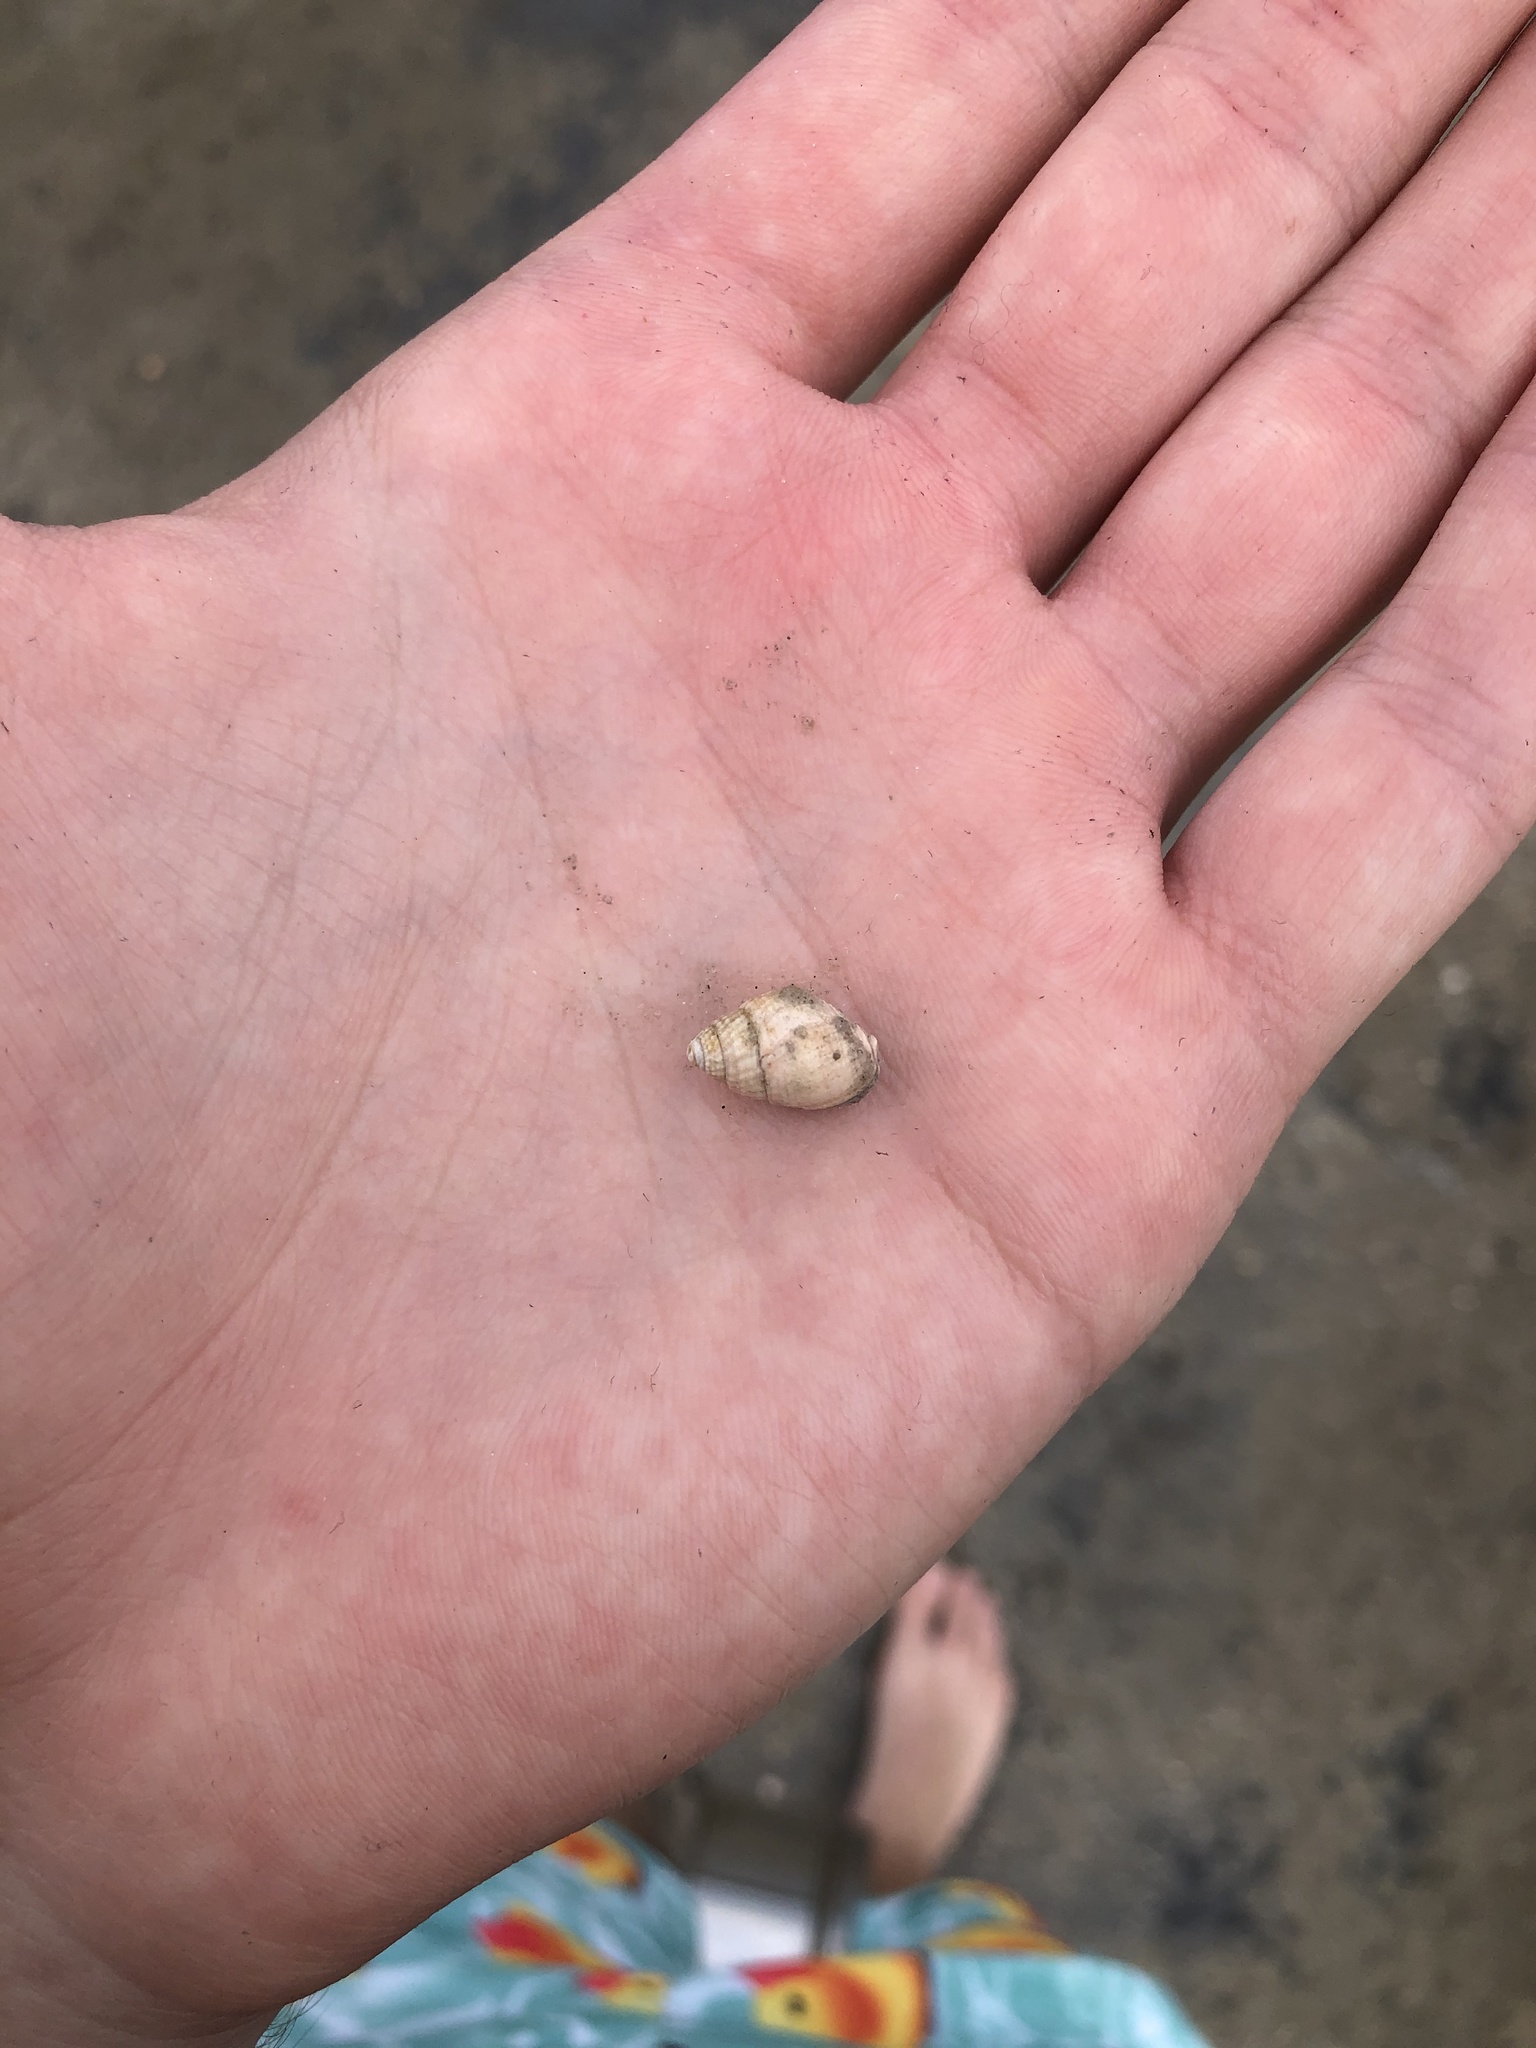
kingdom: Animalia
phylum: Mollusca
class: Gastropoda
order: Neogastropoda
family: Nassariidae
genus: Ilyanassa
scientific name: Ilyanassa obsoleta
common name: Eastern mudsnail
